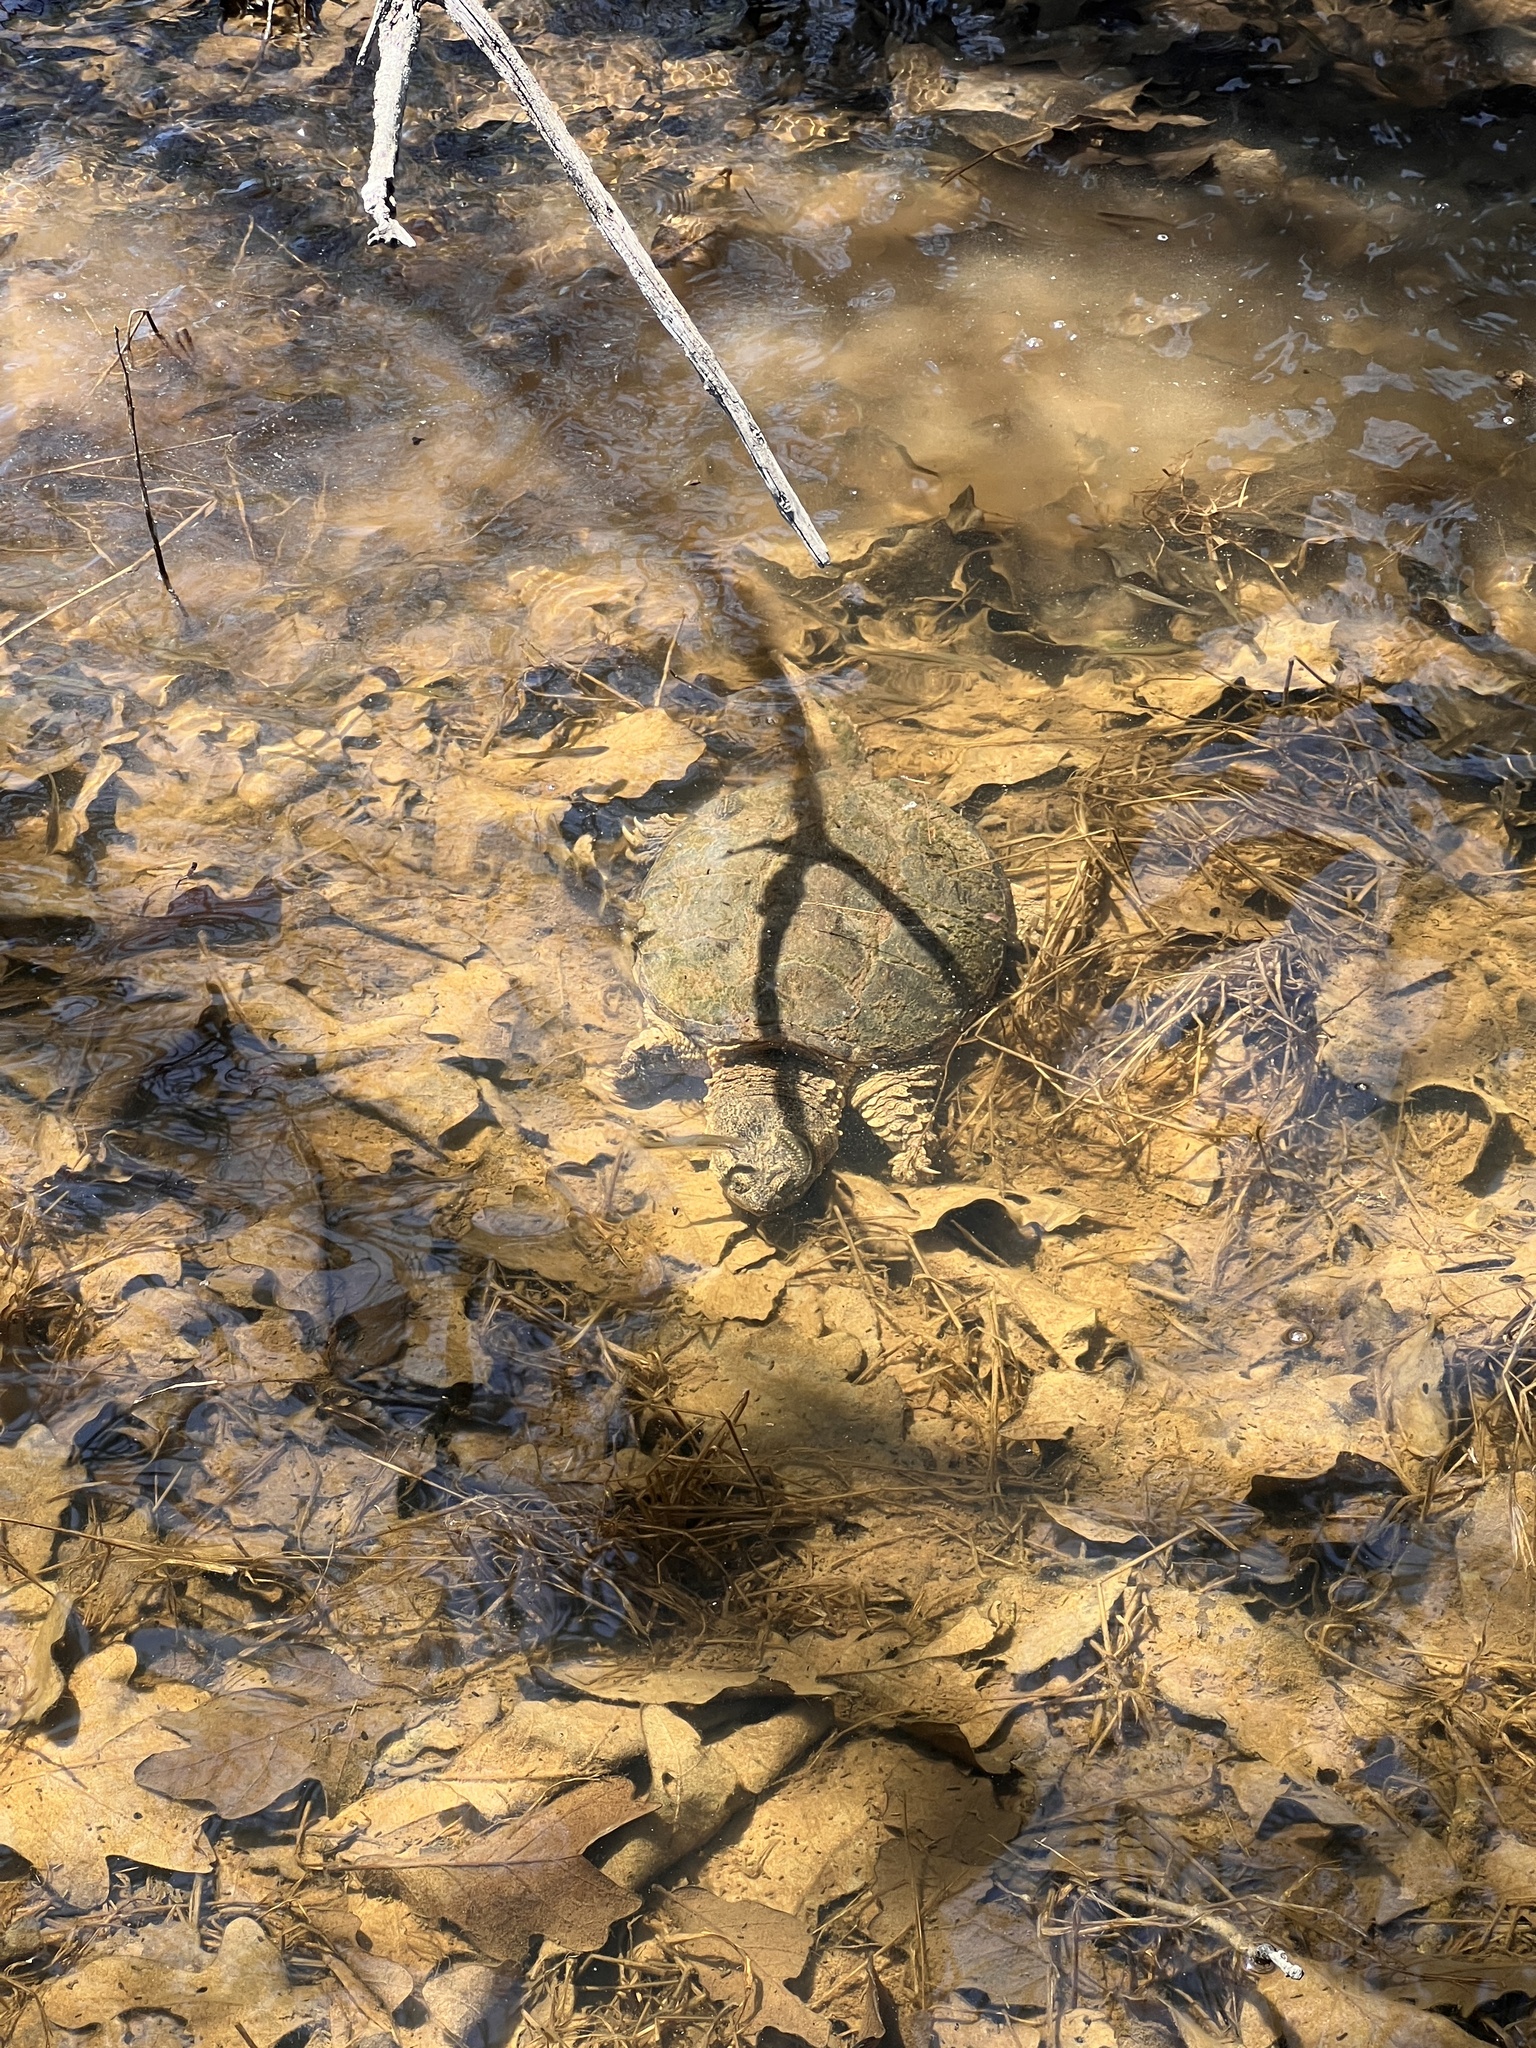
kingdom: Animalia
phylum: Chordata
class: Testudines
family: Chelydridae
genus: Chelydra
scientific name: Chelydra serpentina
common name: Common snapping turtle
